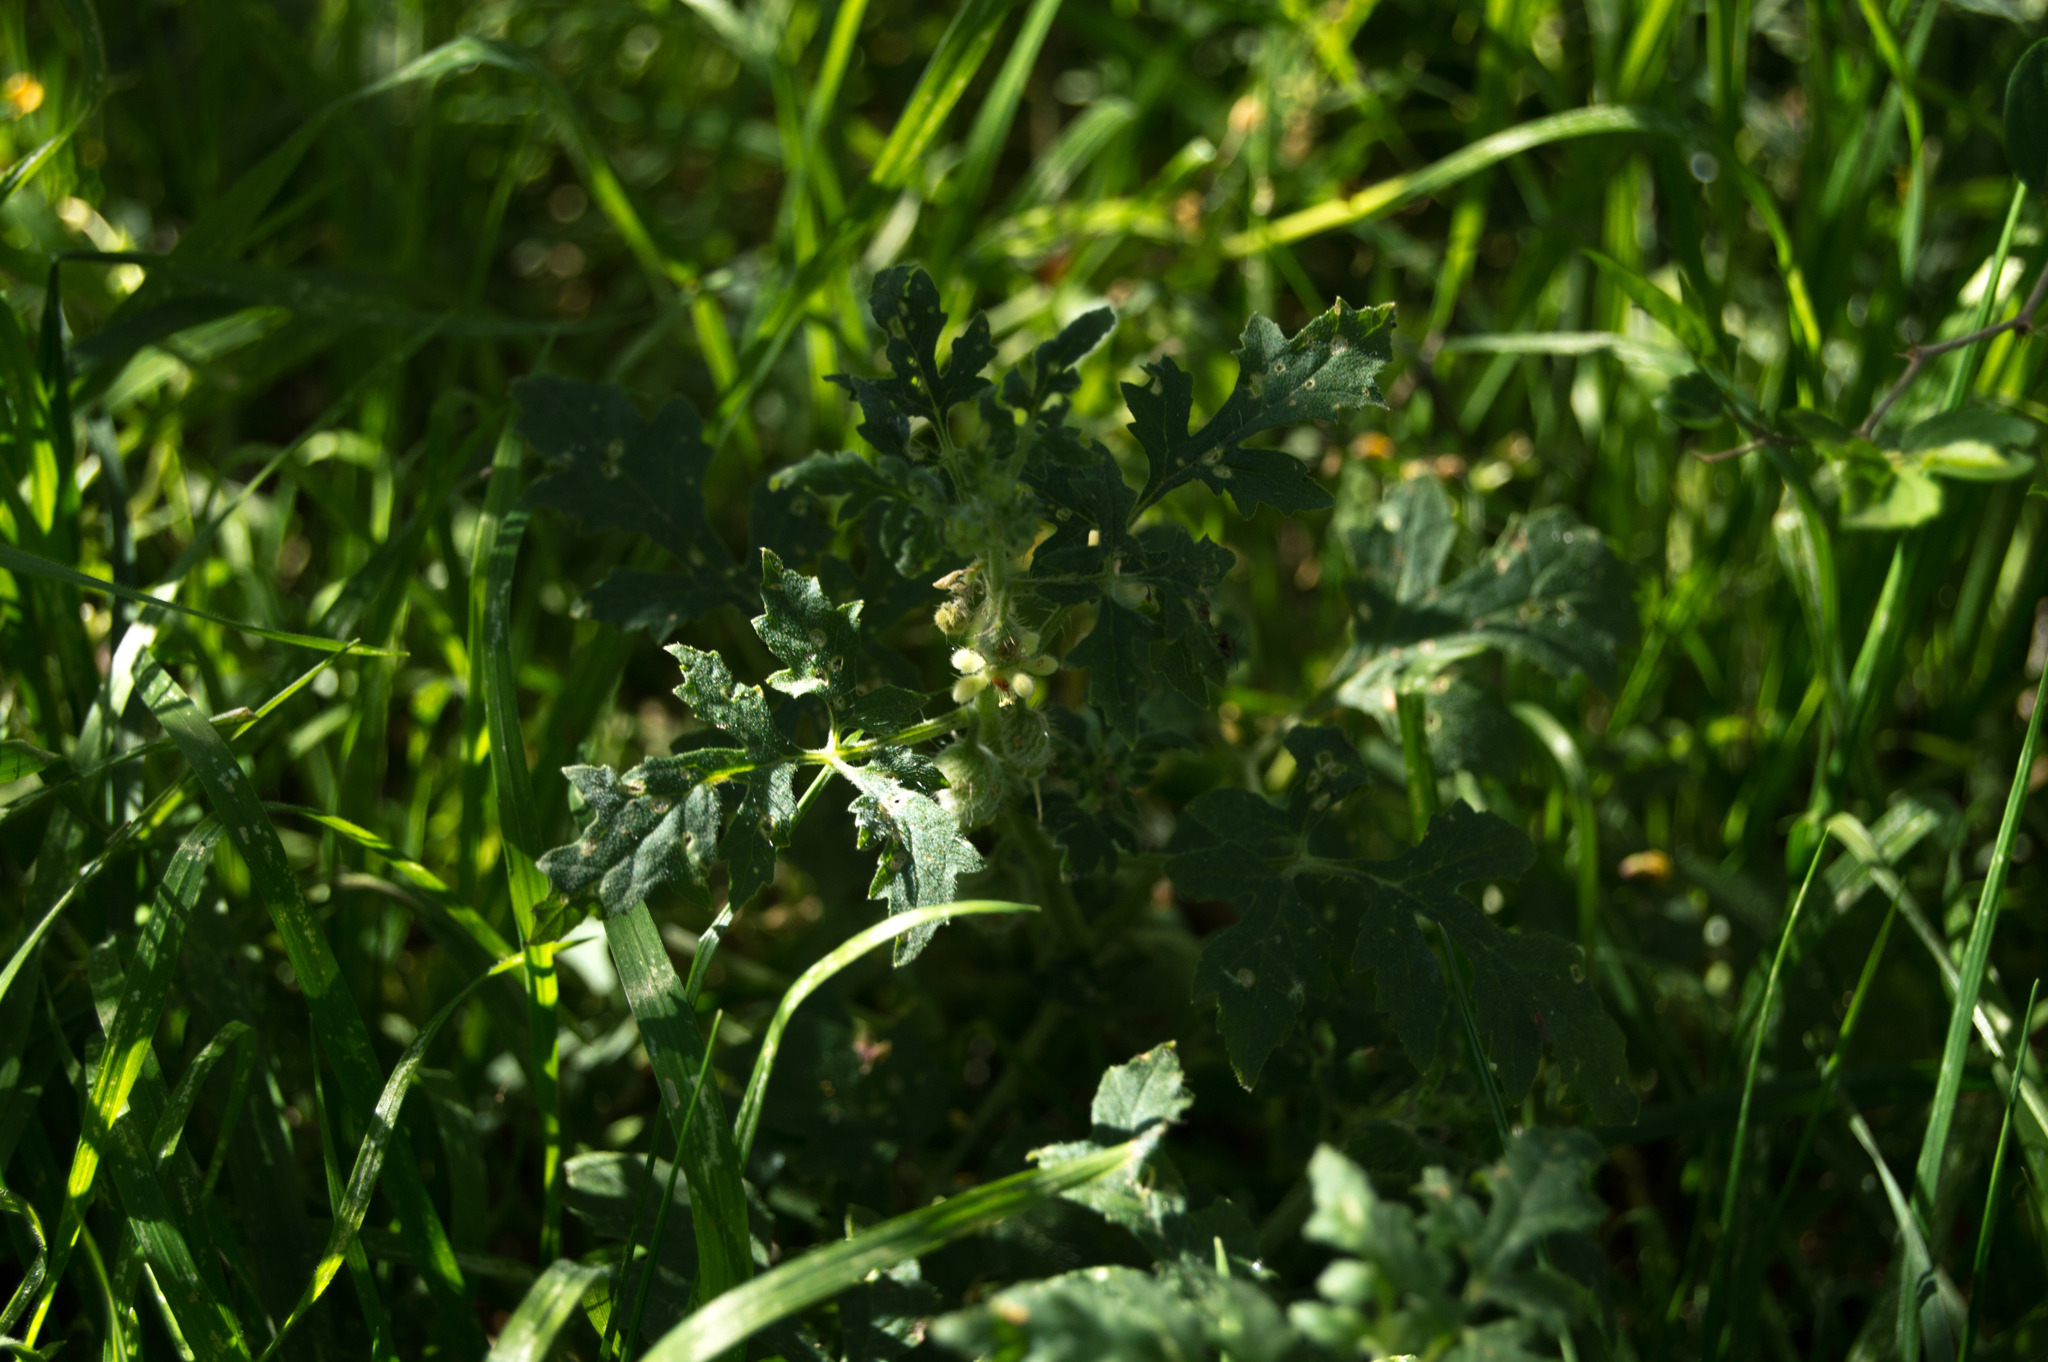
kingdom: Plantae
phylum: Tracheophyta
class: Magnoliopsida
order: Cornales
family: Loasaceae
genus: Blumenbachia
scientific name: Blumenbachia latifolia
